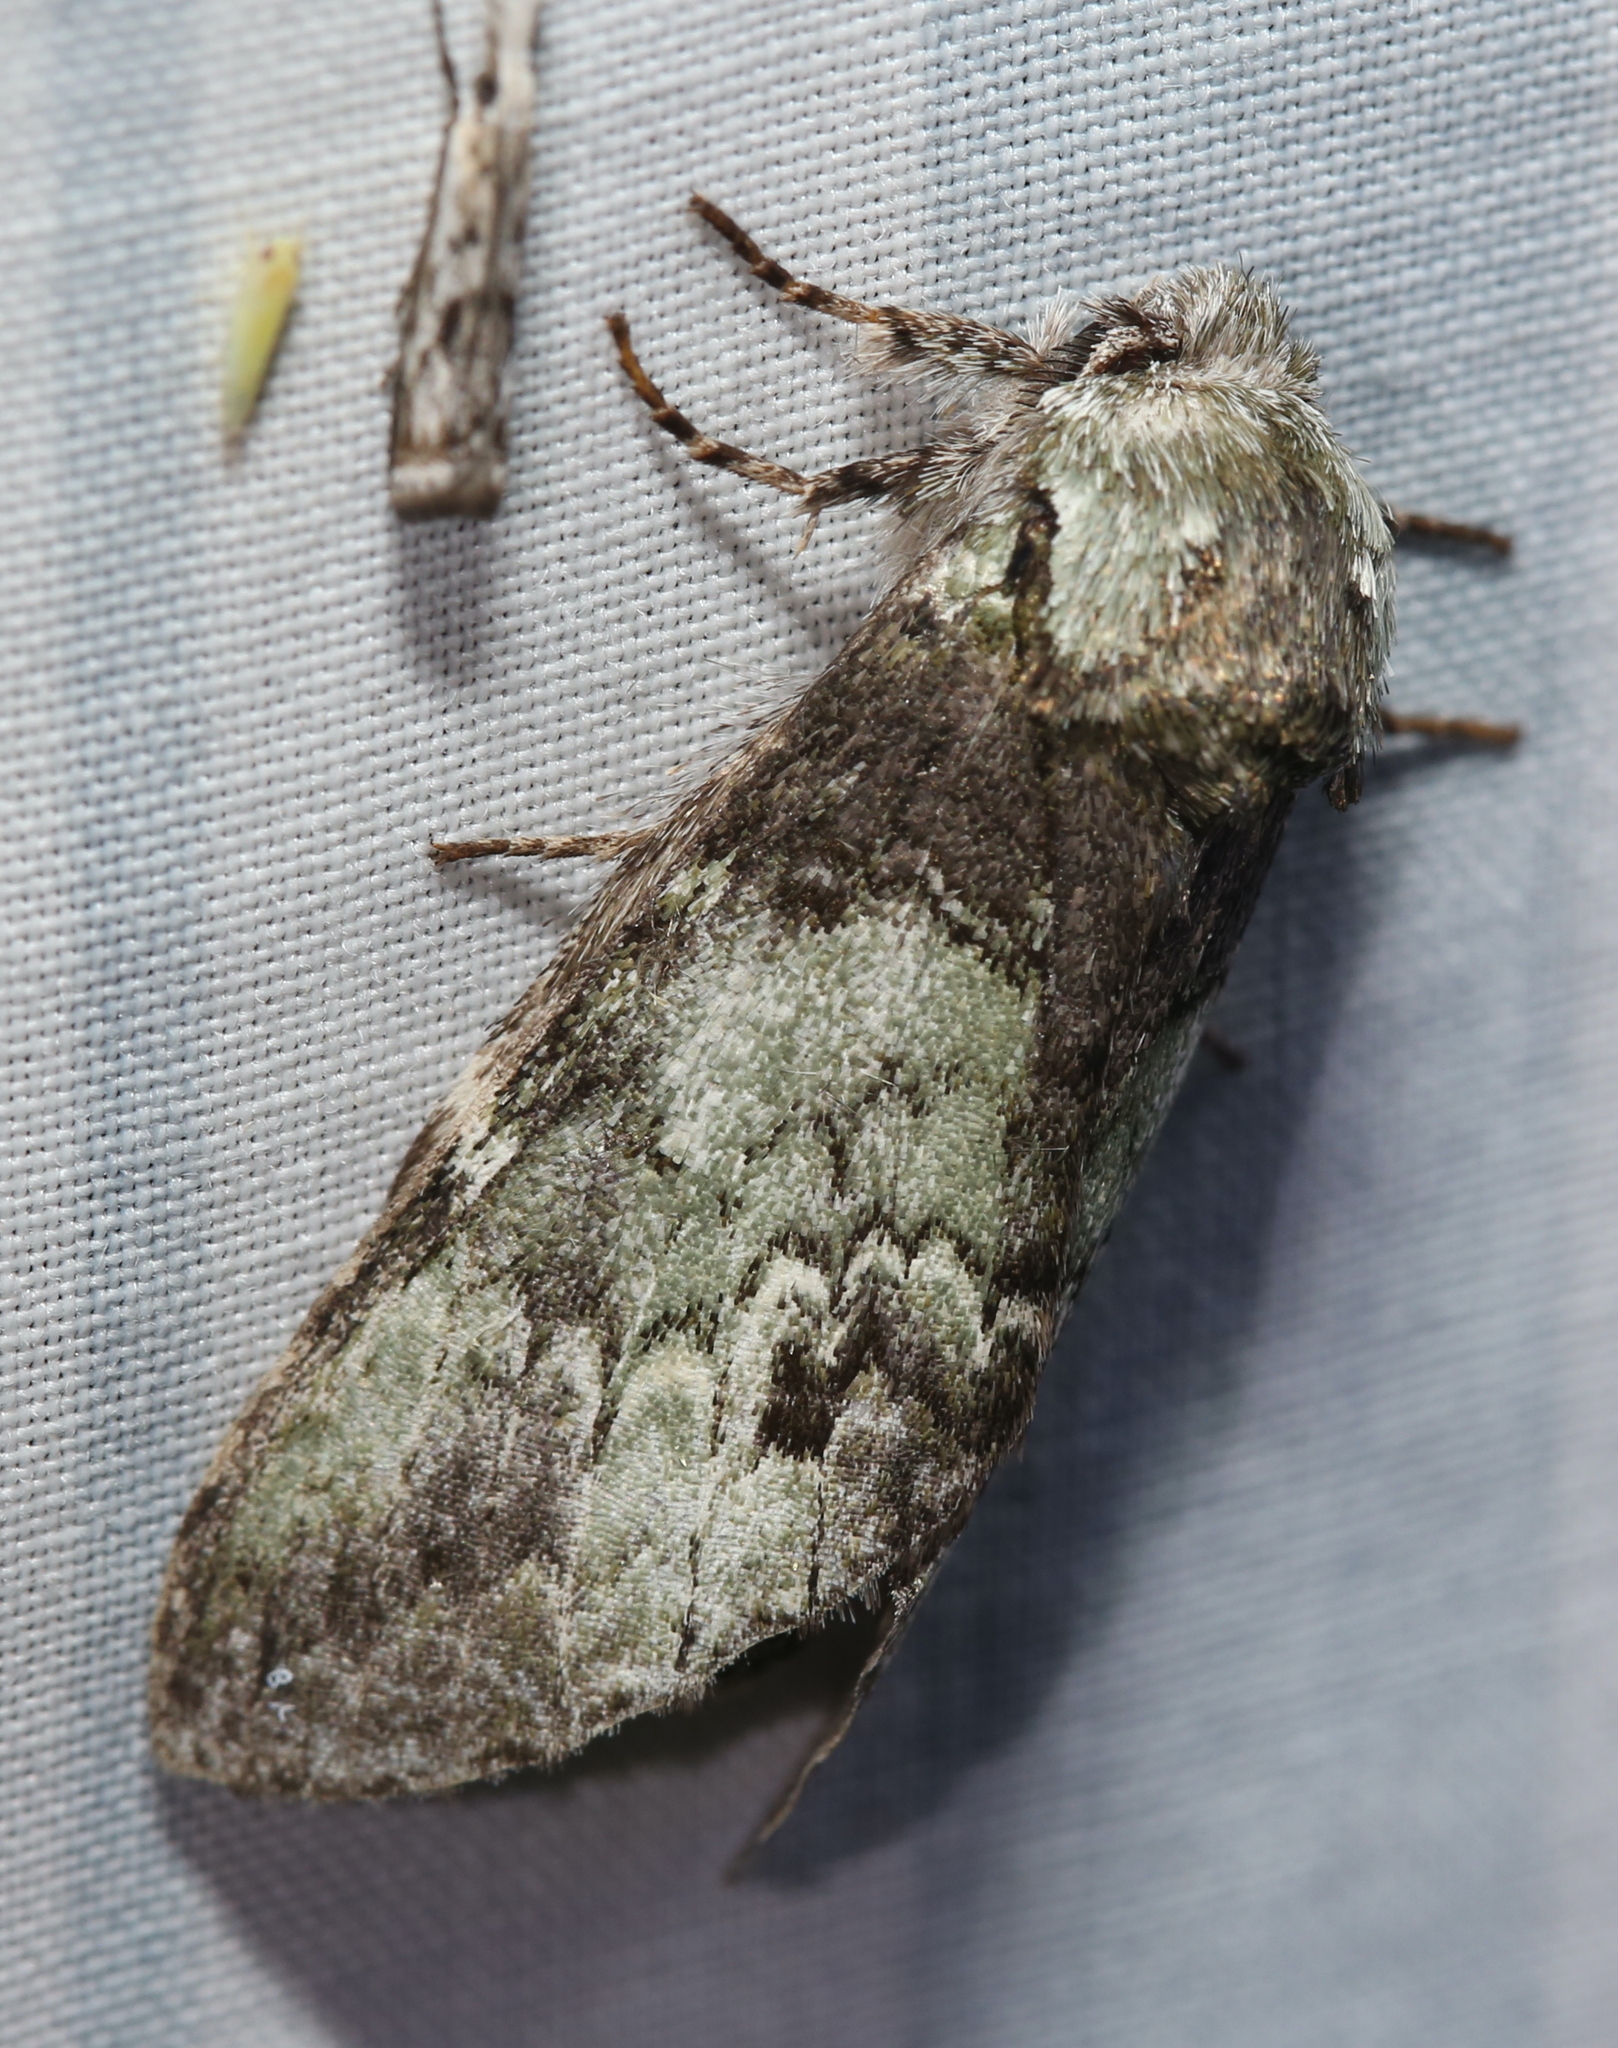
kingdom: Animalia
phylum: Arthropoda
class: Insecta
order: Lepidoptera
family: Notodontidae
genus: Macrurocampa
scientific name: Macrurocampa marthesia
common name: Mottled prominent
